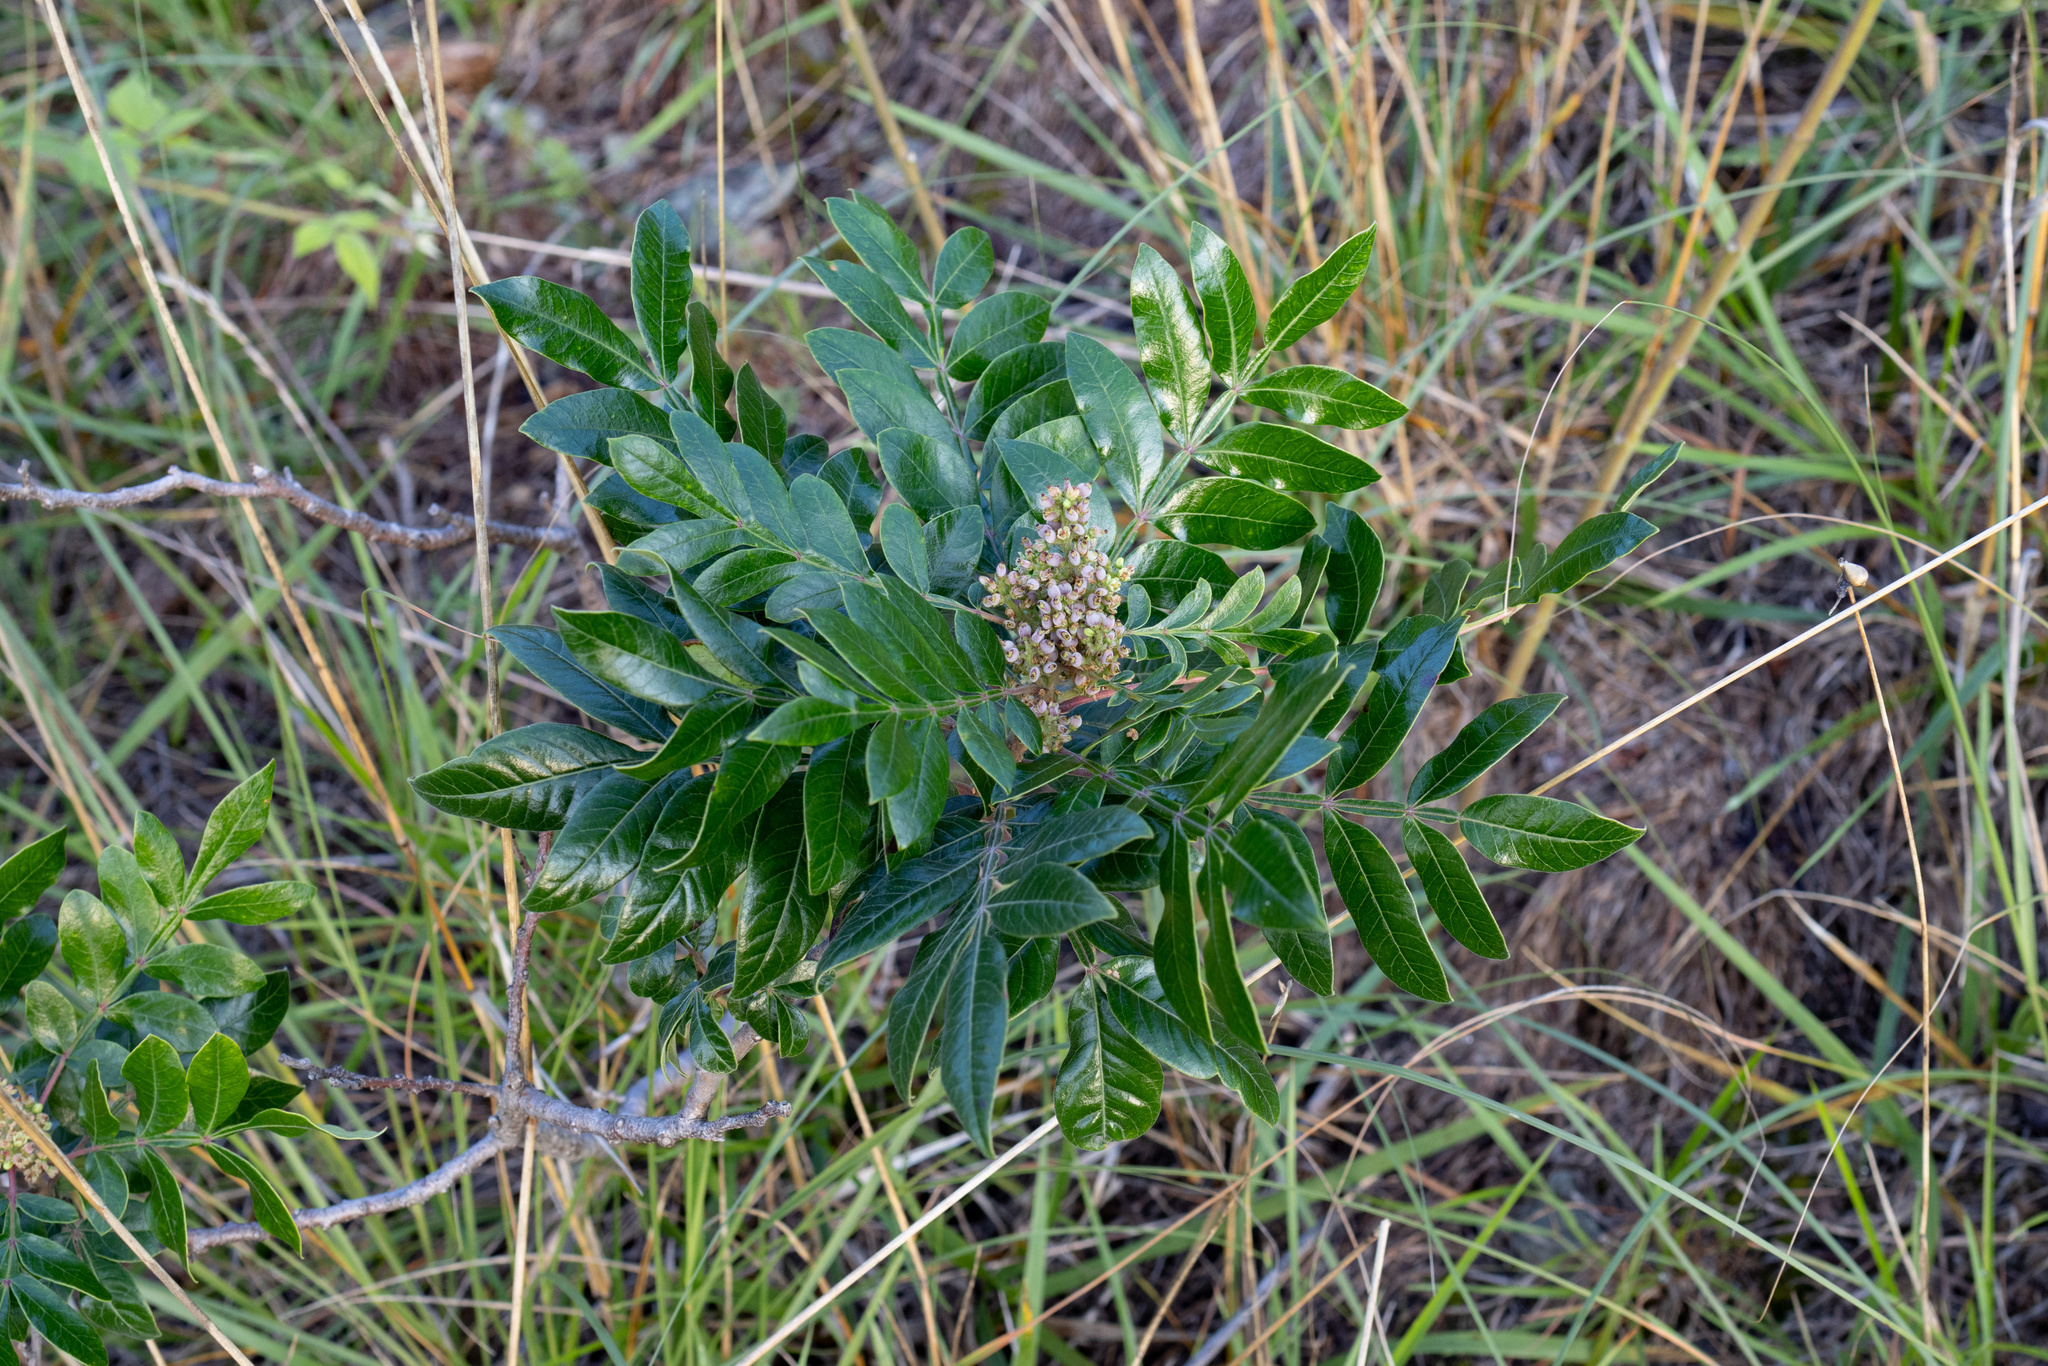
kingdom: Plantae
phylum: Tracheophyta
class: Magnoliopsida
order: Sapindales
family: Anacardiaceae
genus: Rhus
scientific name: Rhus copallina
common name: Shining sumac
